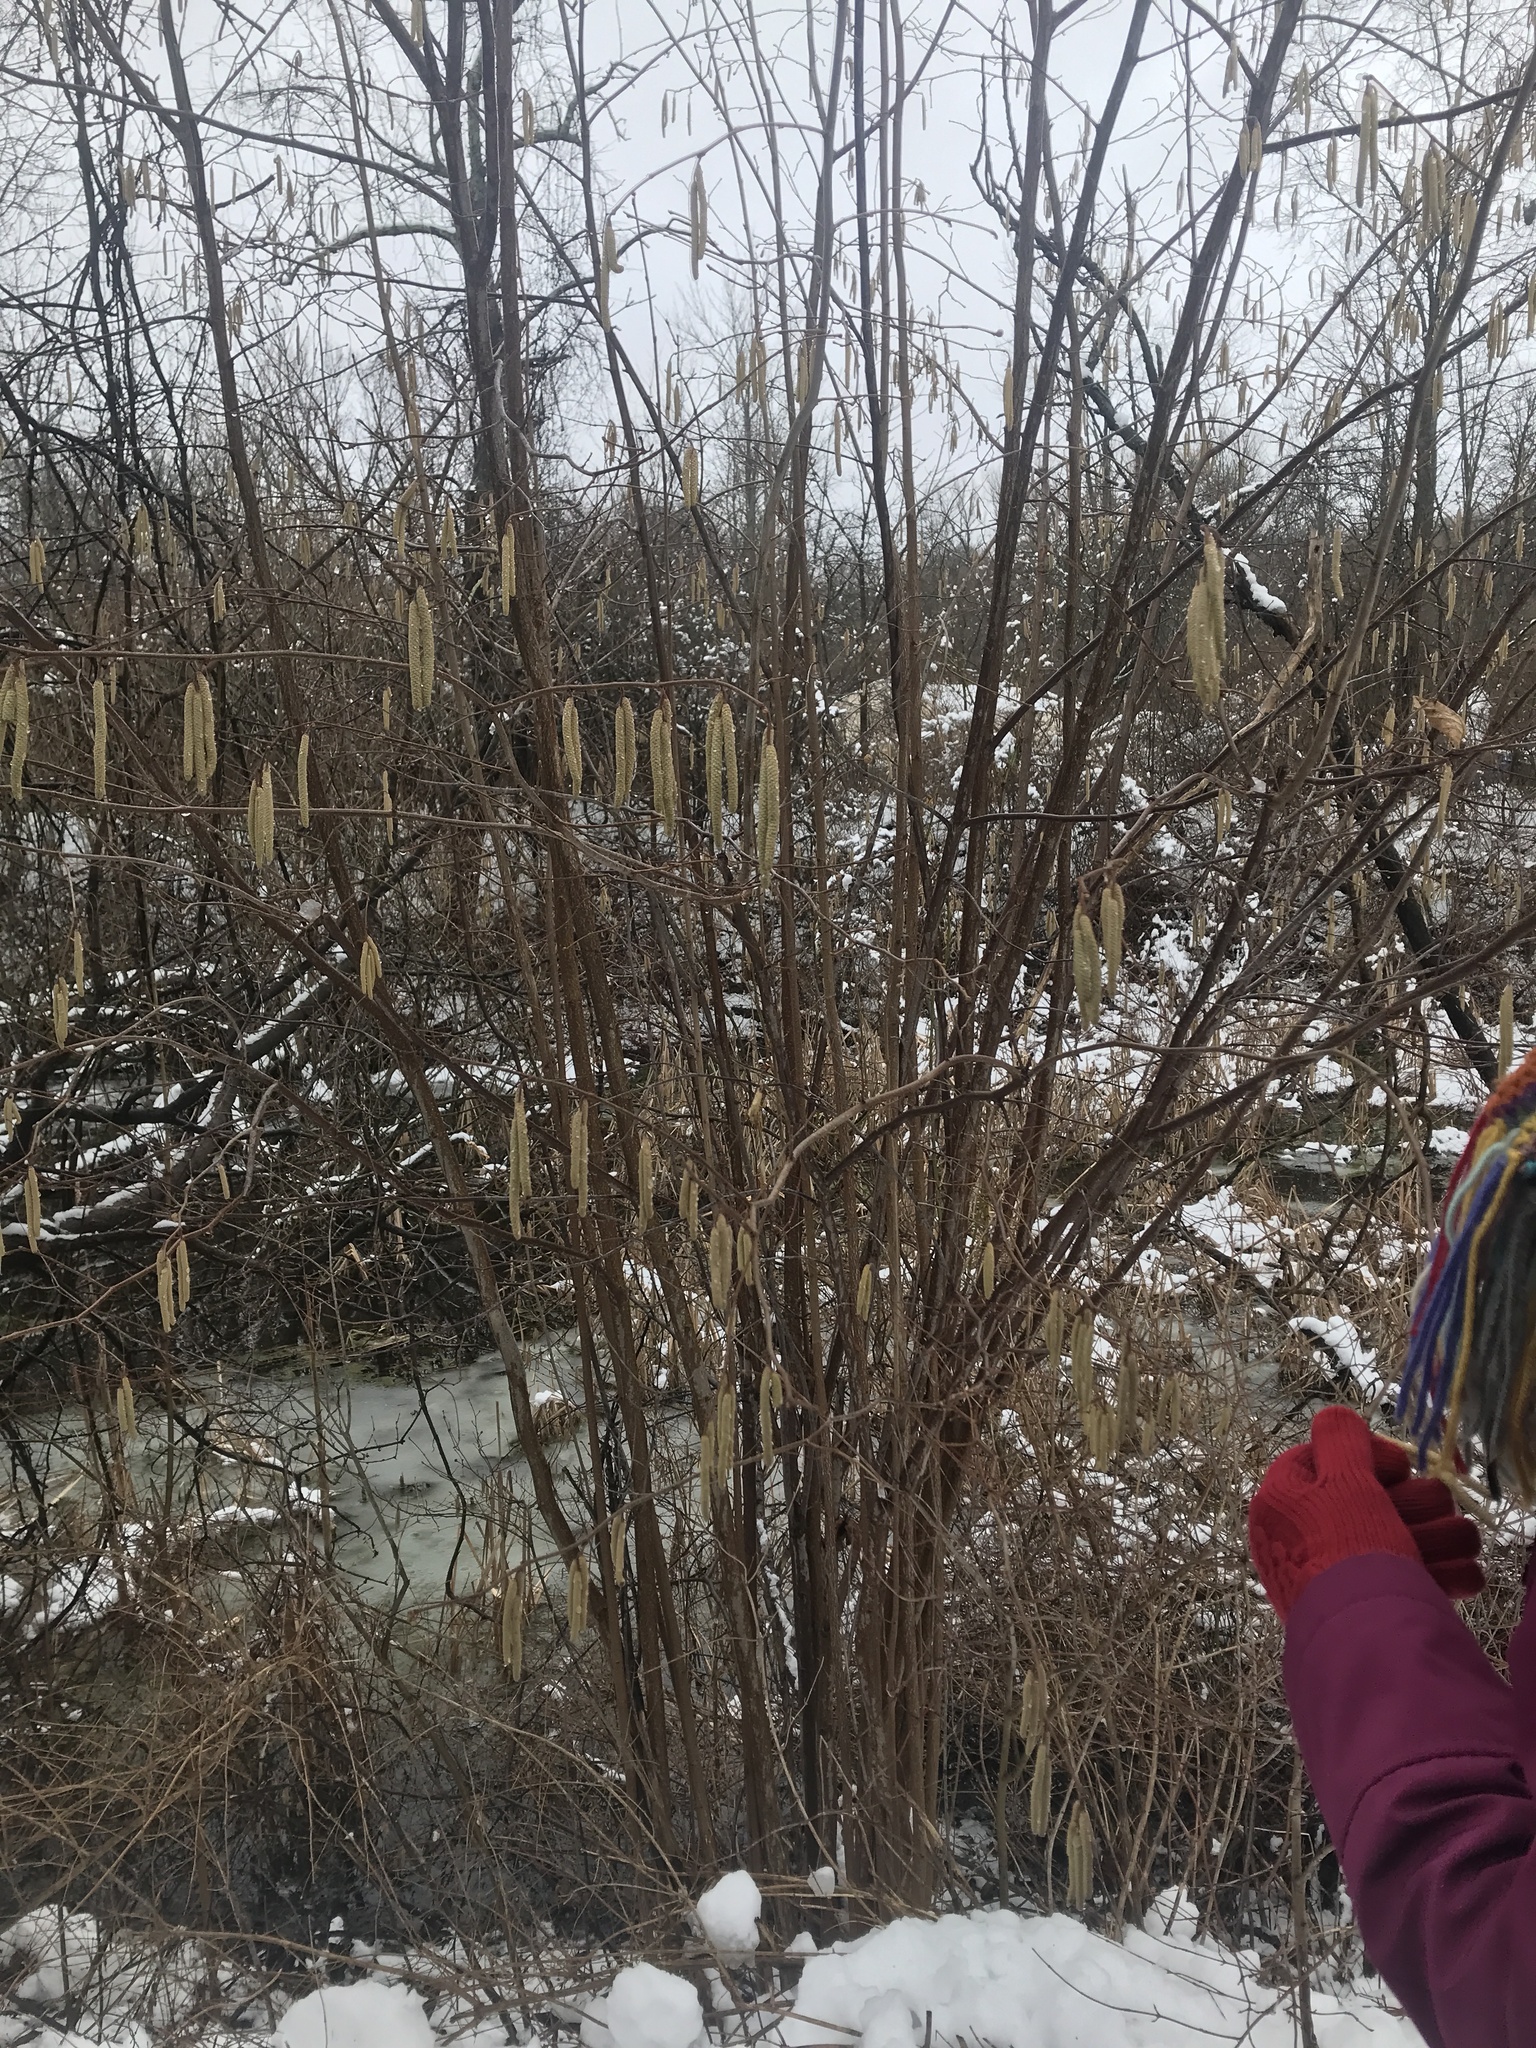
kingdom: Plantae
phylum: Tracheophyta
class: Magnoliopsida
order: Fagales
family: Betulaceae
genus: Corylus
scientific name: Corylus americana
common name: American hazel
